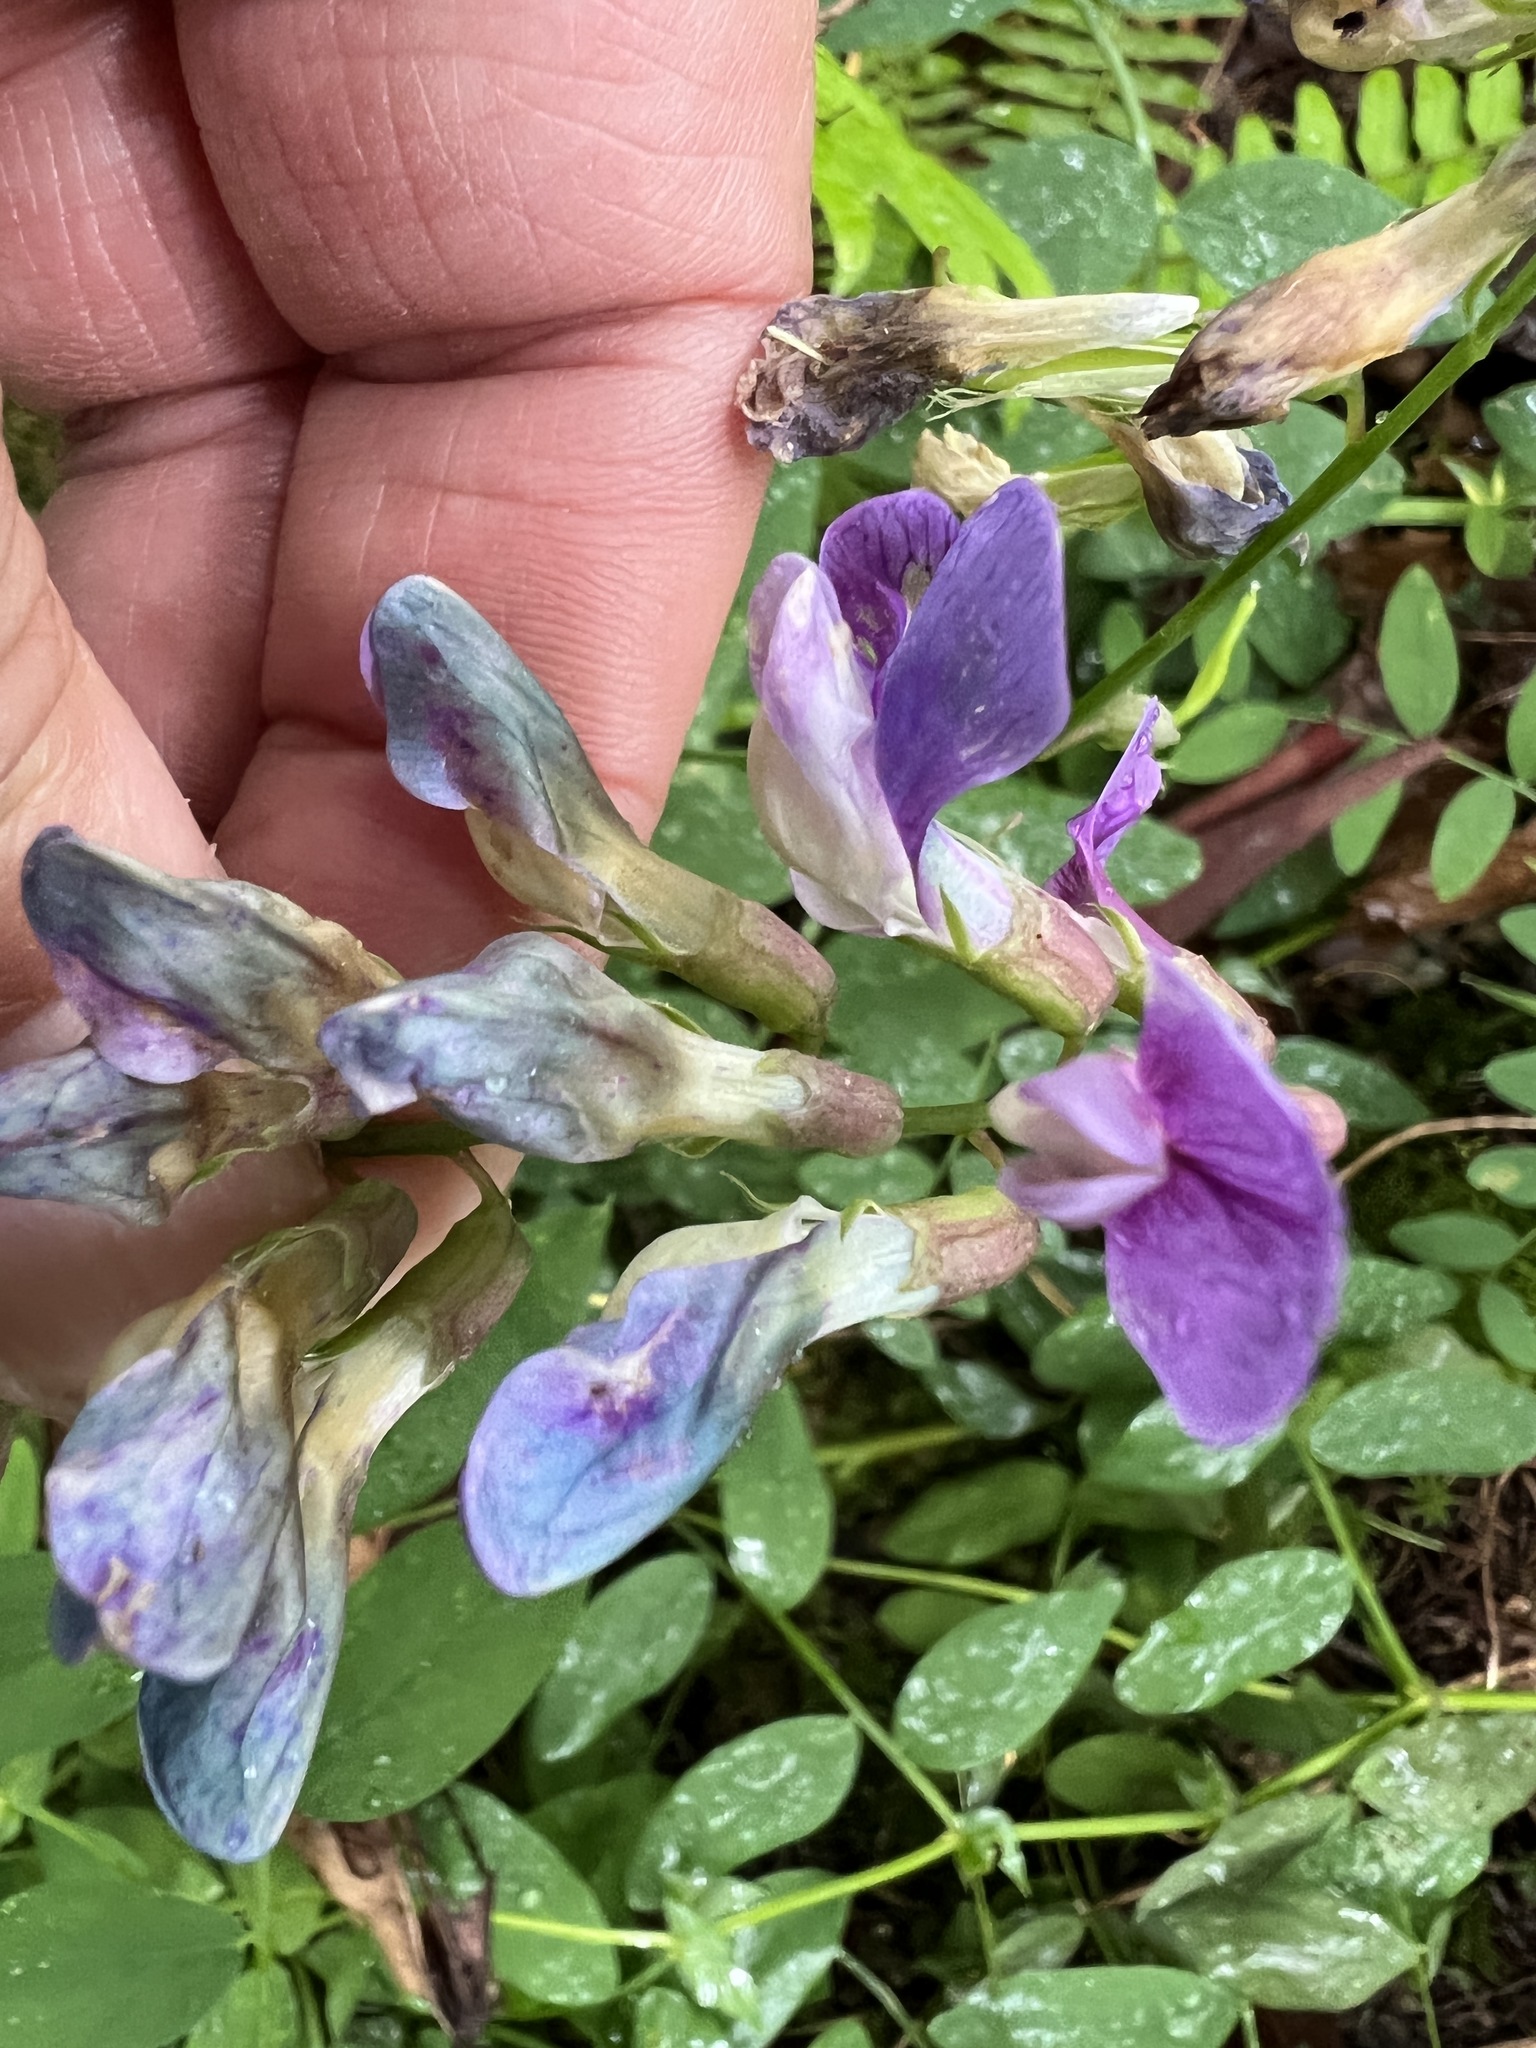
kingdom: Plantae
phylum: Tracheophyta
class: Magnoliopsida
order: Fabales
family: Fabaceae
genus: Lathyrus
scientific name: Lathyrus polyphyllus
